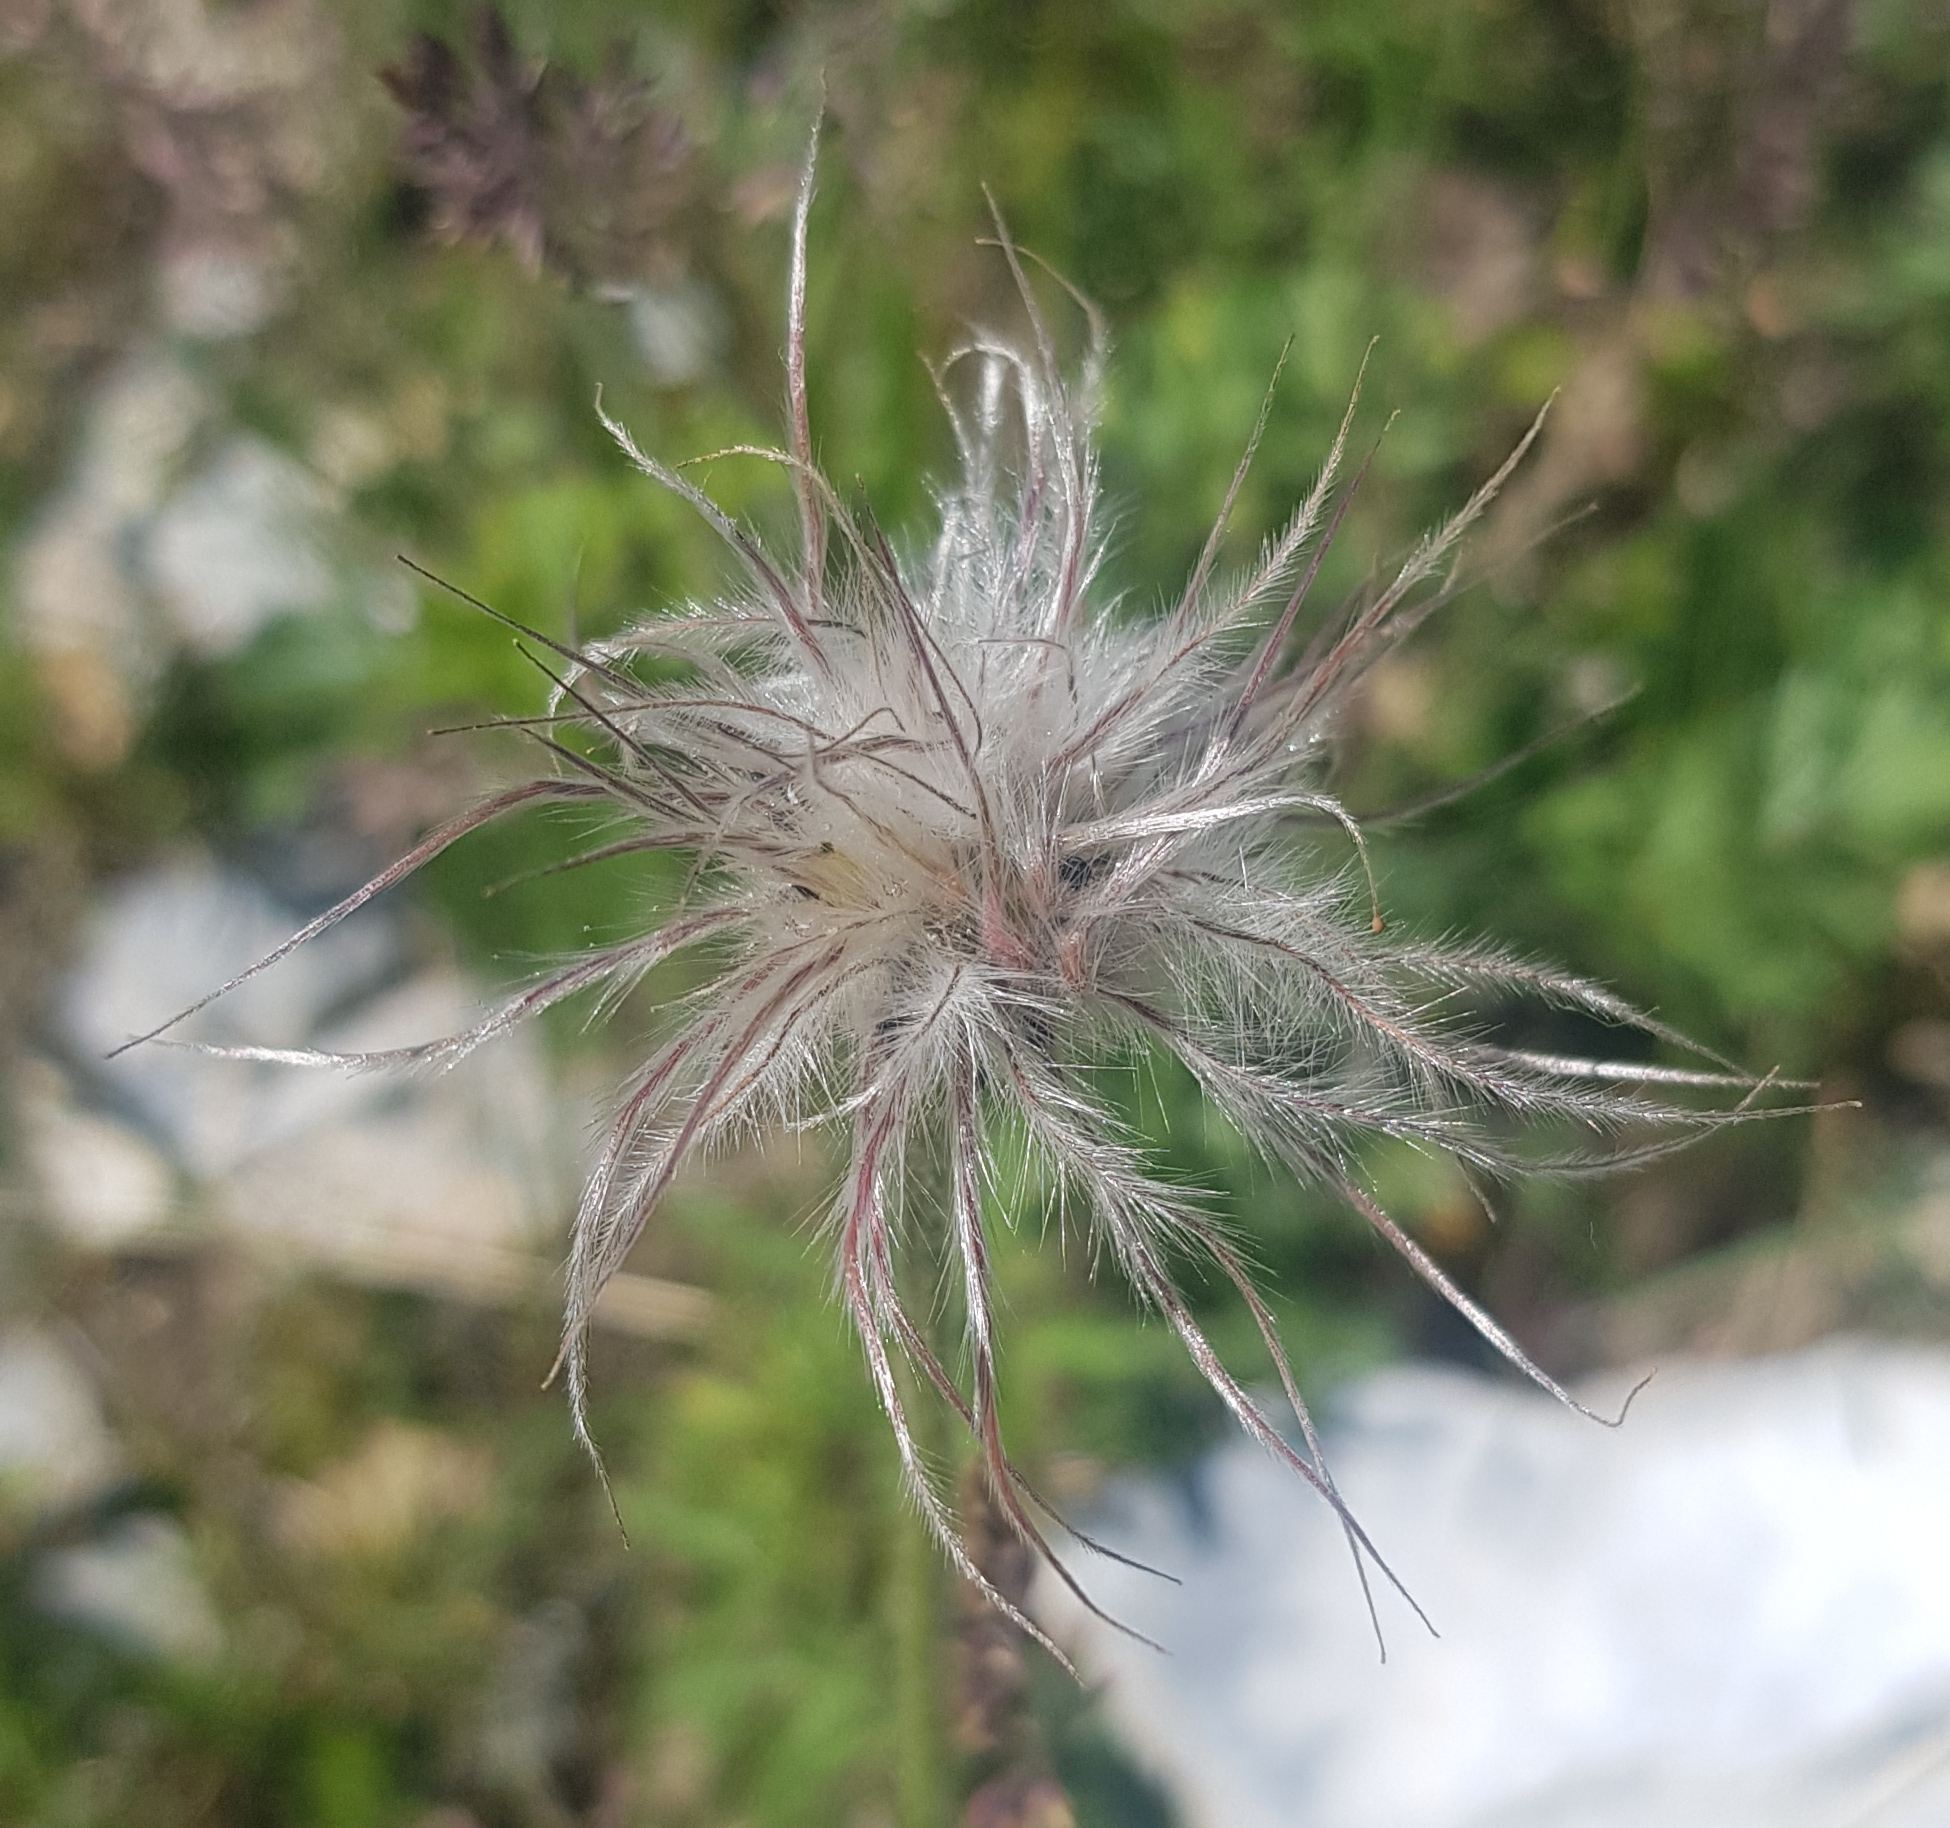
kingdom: Plantae
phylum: Tracheophyta
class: Magnoliopsida
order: Ranunculales
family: Ranunculaceae
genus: Pulsatilla
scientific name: Pulsatilla turczaninovii
